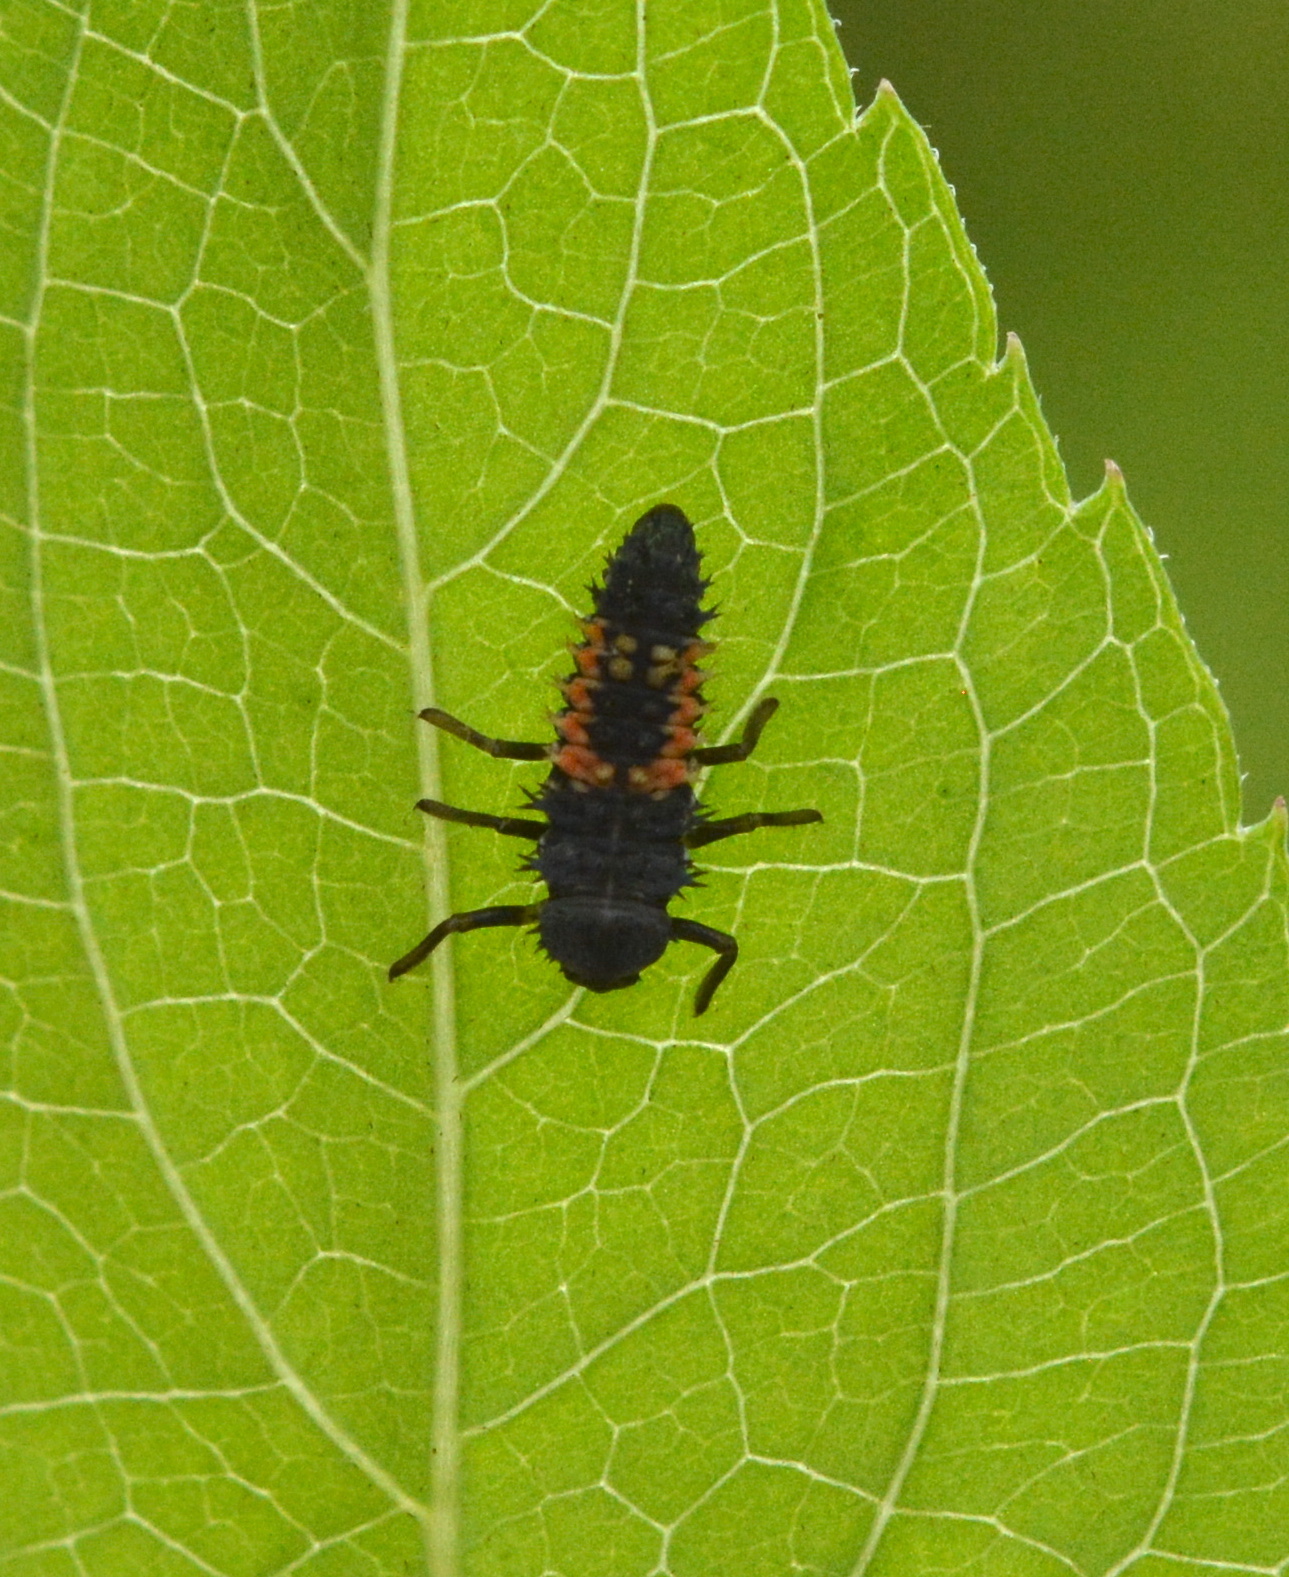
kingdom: Animalia
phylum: Arthropoda
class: Insecta
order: Coleoptera
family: Coccinellidae
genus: Harmonia
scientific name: Harmonia axyridis
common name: Harlequin ladybird
